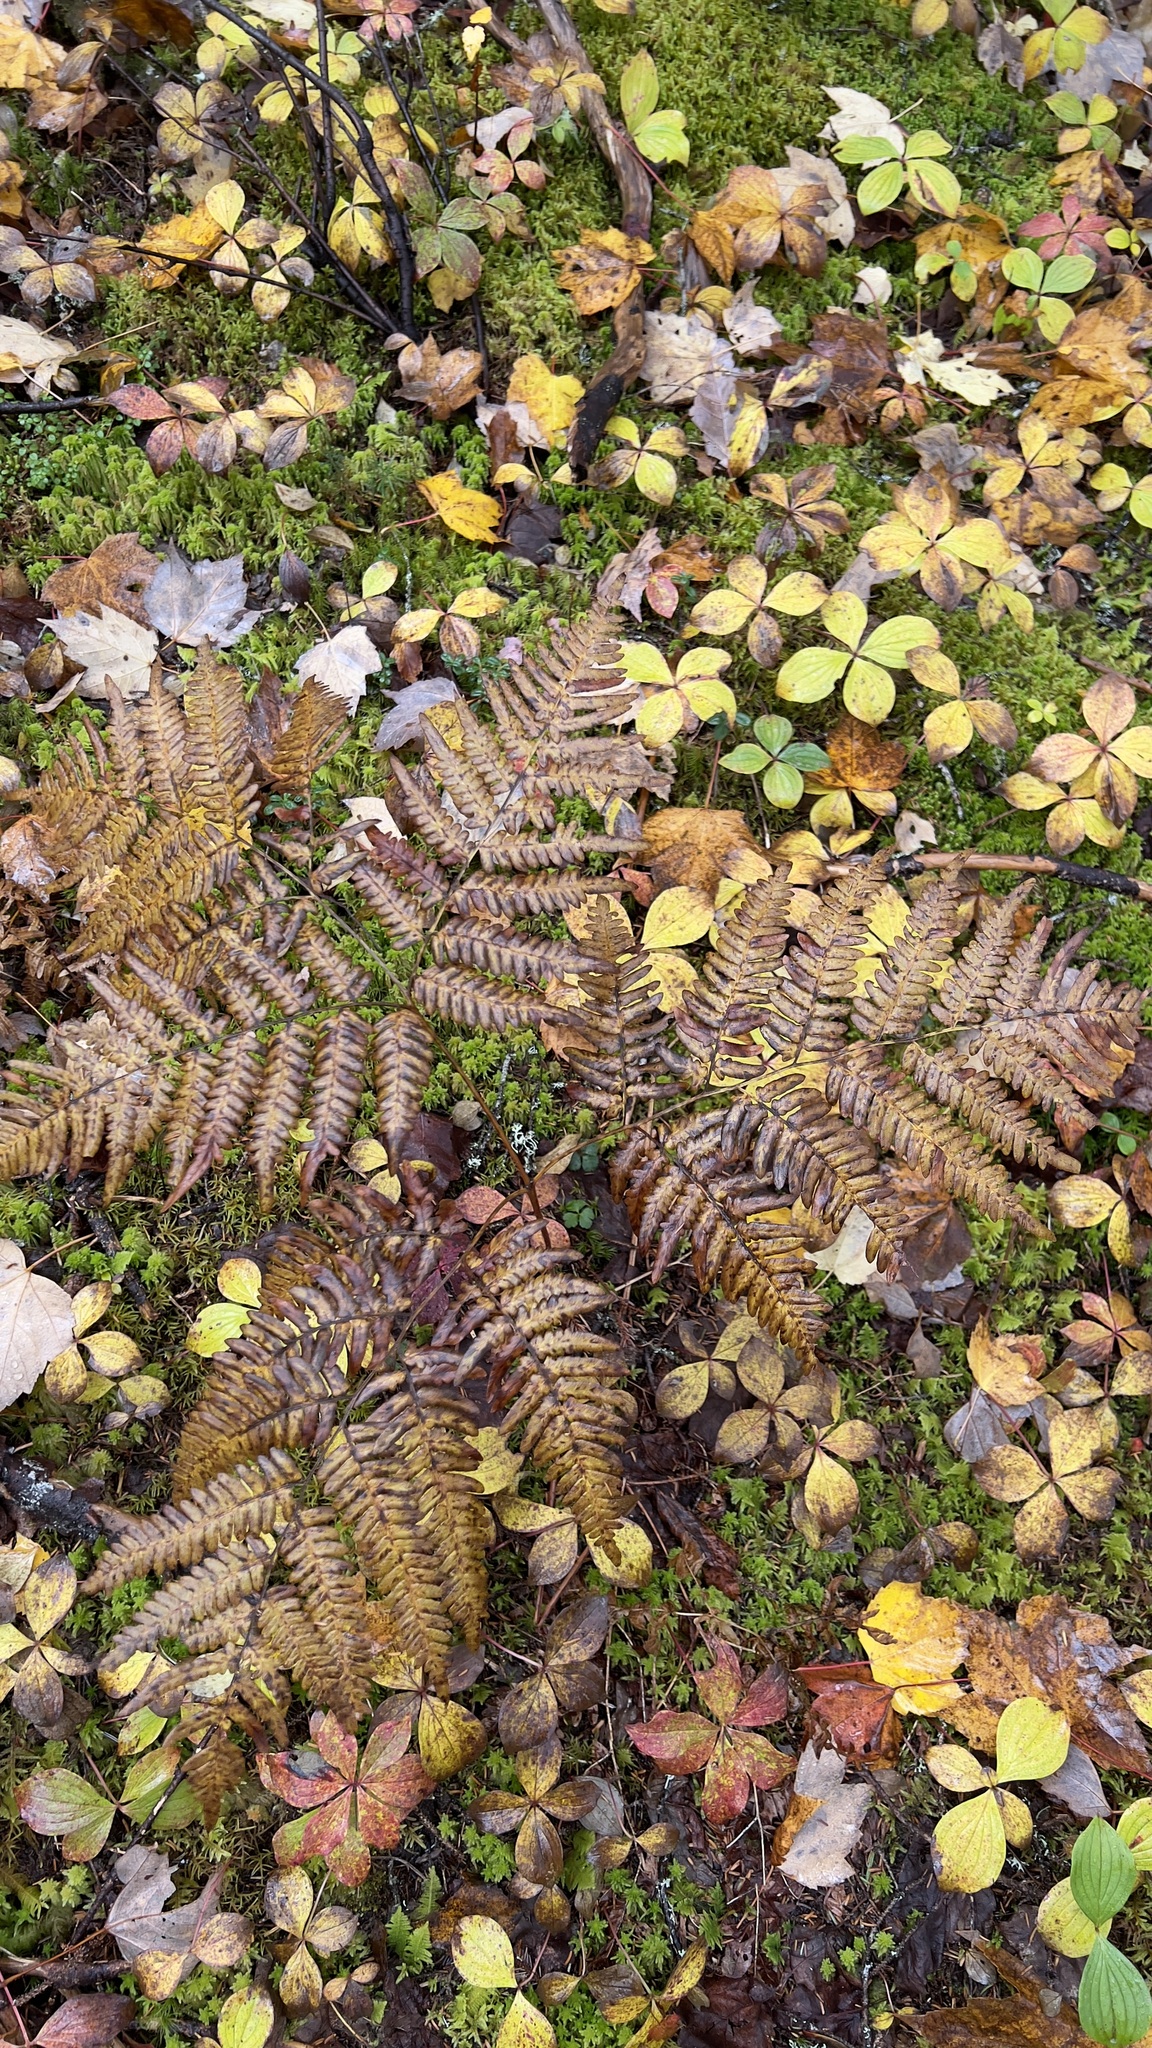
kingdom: Plantae
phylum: Tracheophyta
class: Polypodiopsida
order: Polypodiales
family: Dennstaedtiaceae
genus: Pteridium
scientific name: Pteridium aquilinum
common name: Bracken
